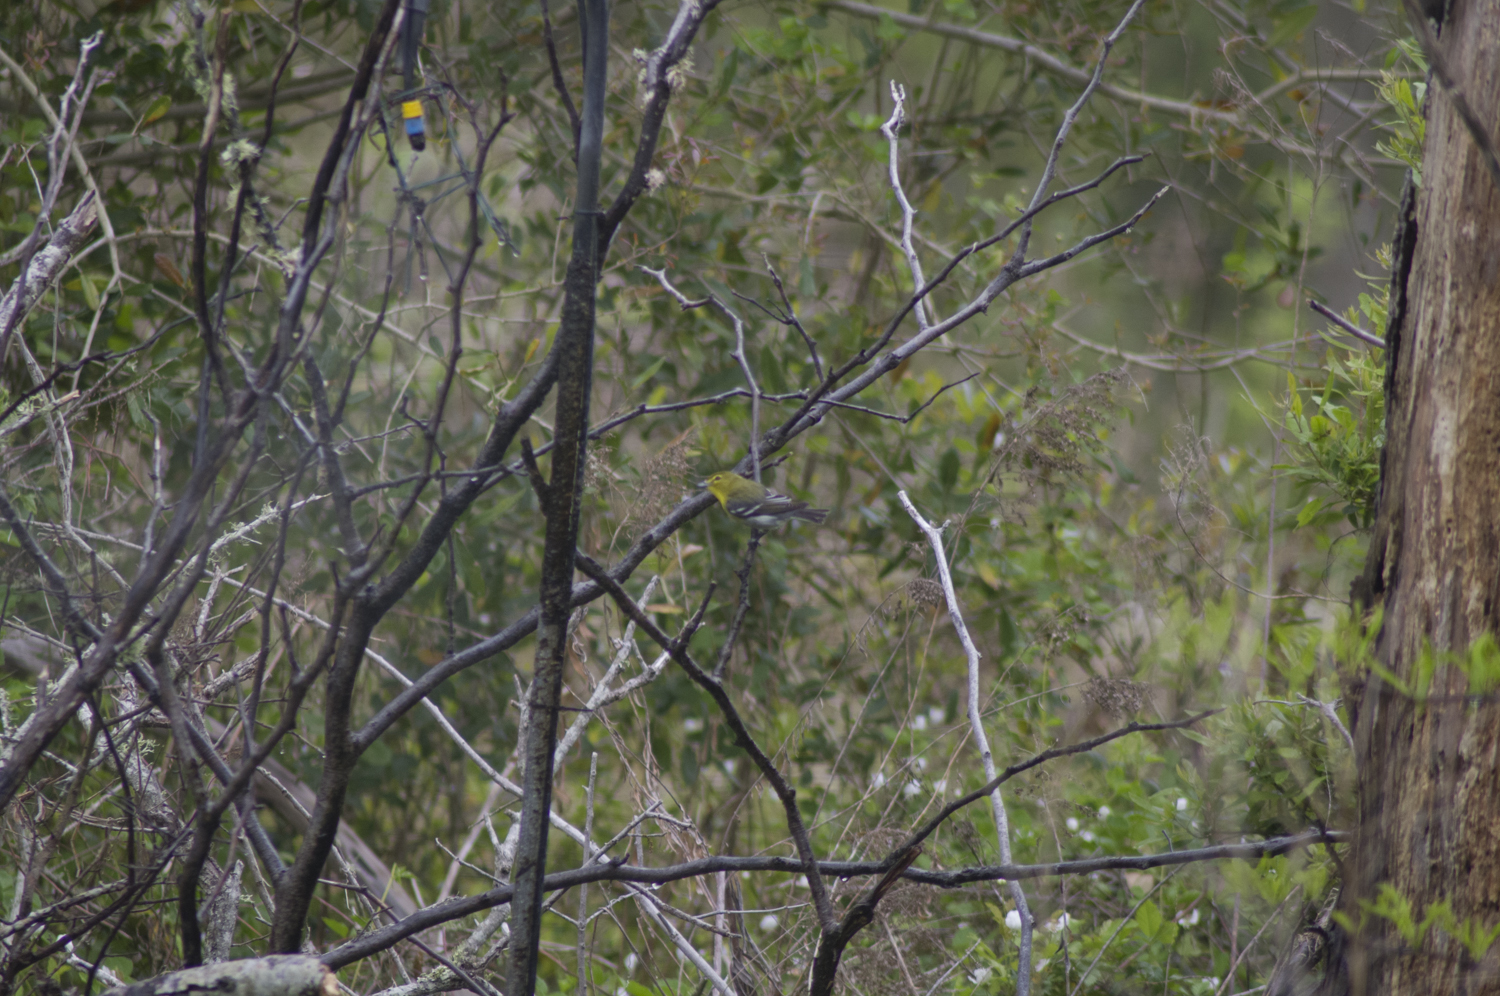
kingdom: Animalia
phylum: Chordata
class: Aves
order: Passeriformes
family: Vireonidae
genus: Vireo
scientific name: Vireo flavifrons
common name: Yellow-throated vireo
